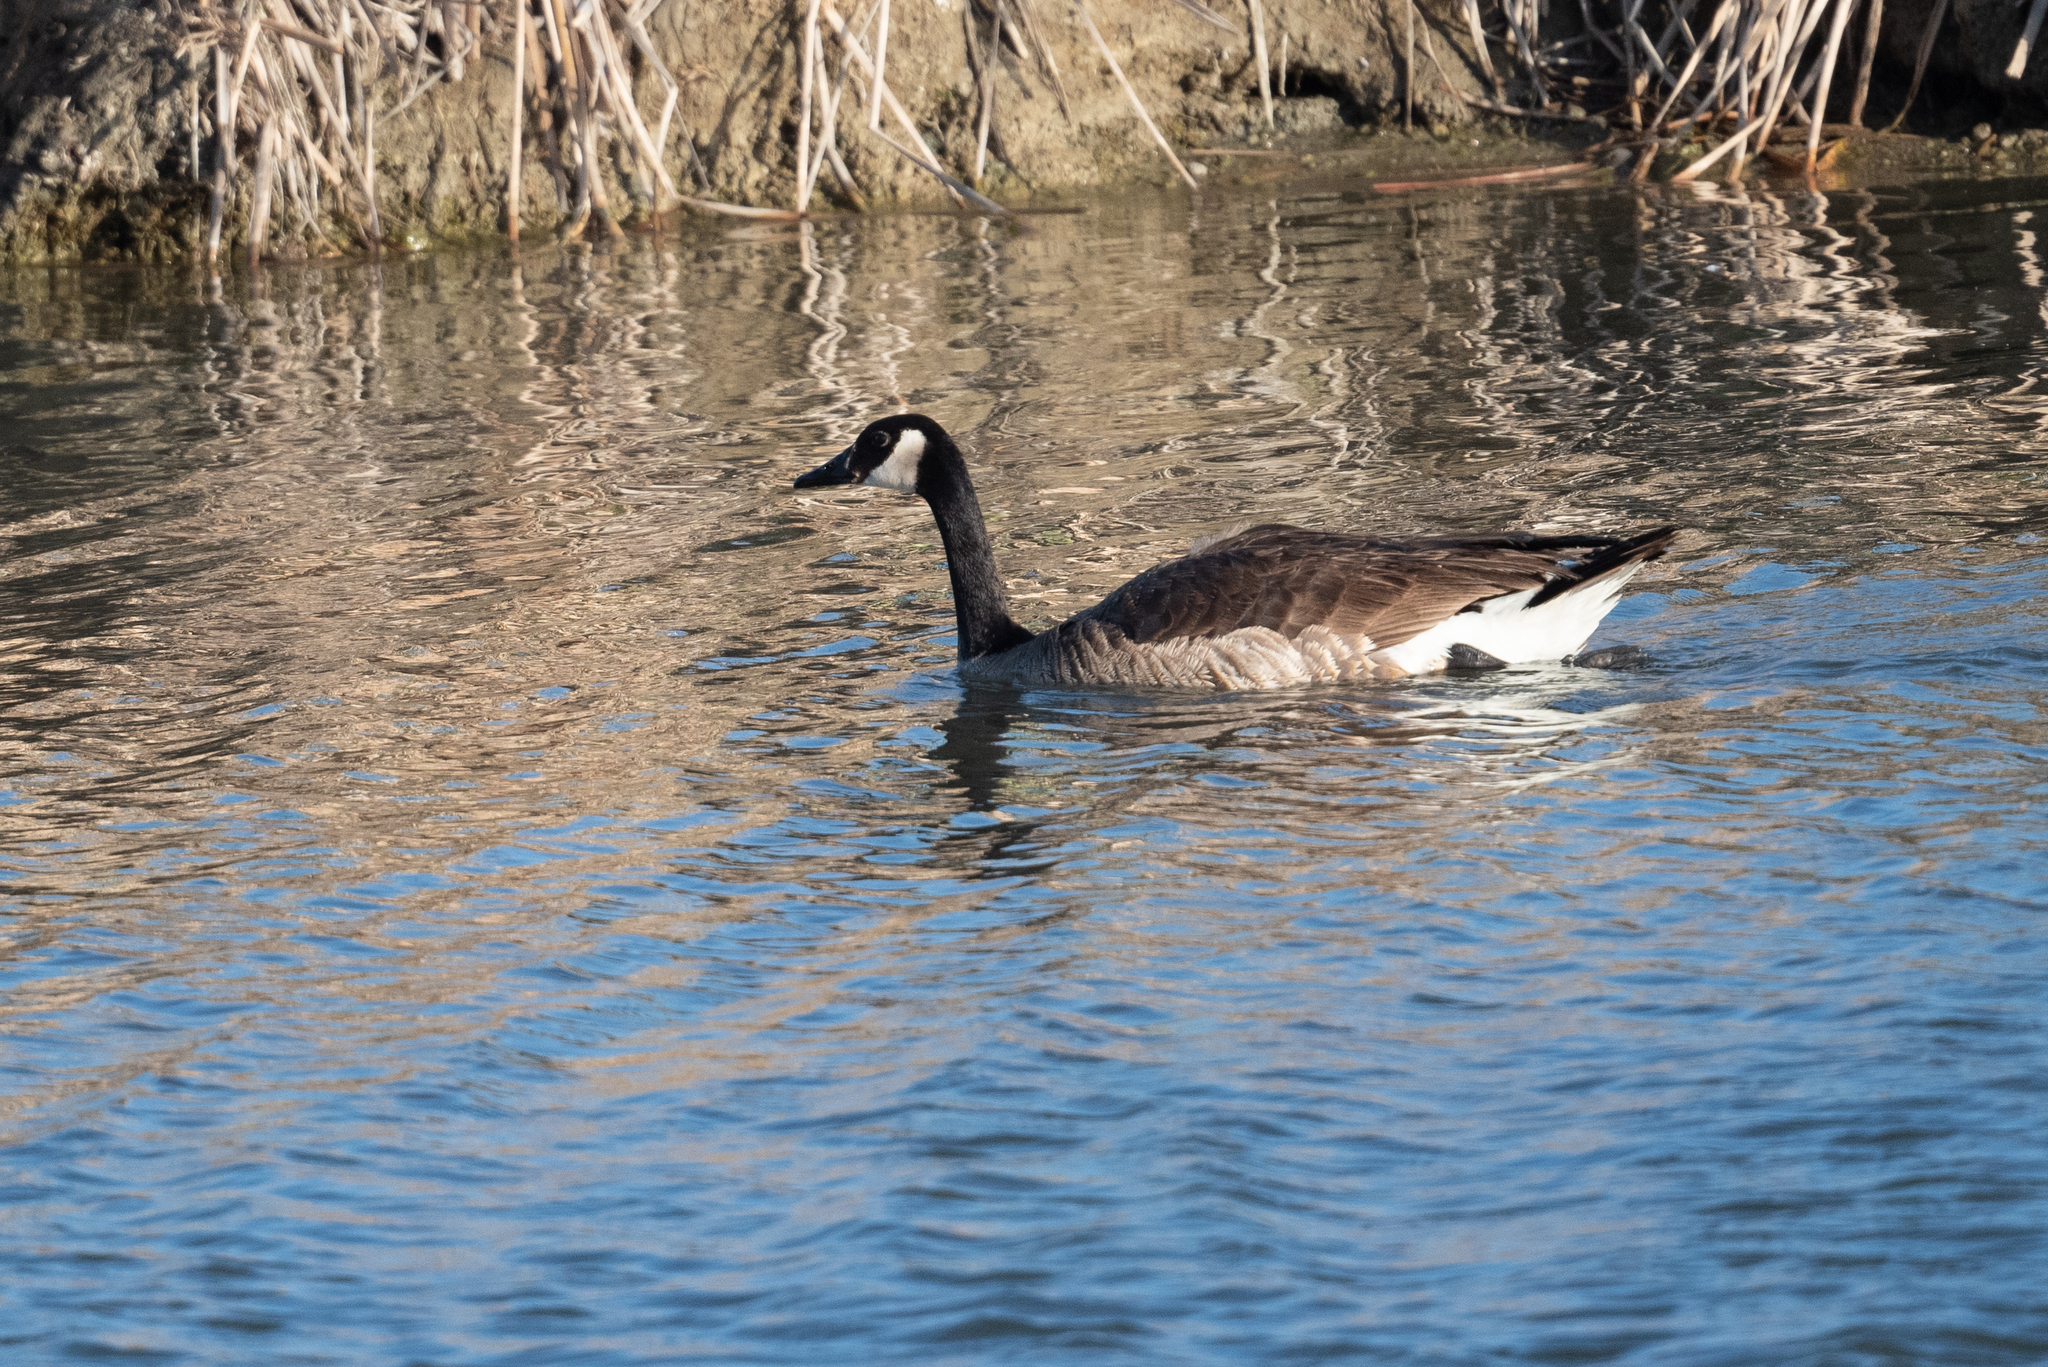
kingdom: Animalia
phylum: Chordata
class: Aves
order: Anseriformes
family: Anatidae
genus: Branta
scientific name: Branta canadensis
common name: Canada goose
